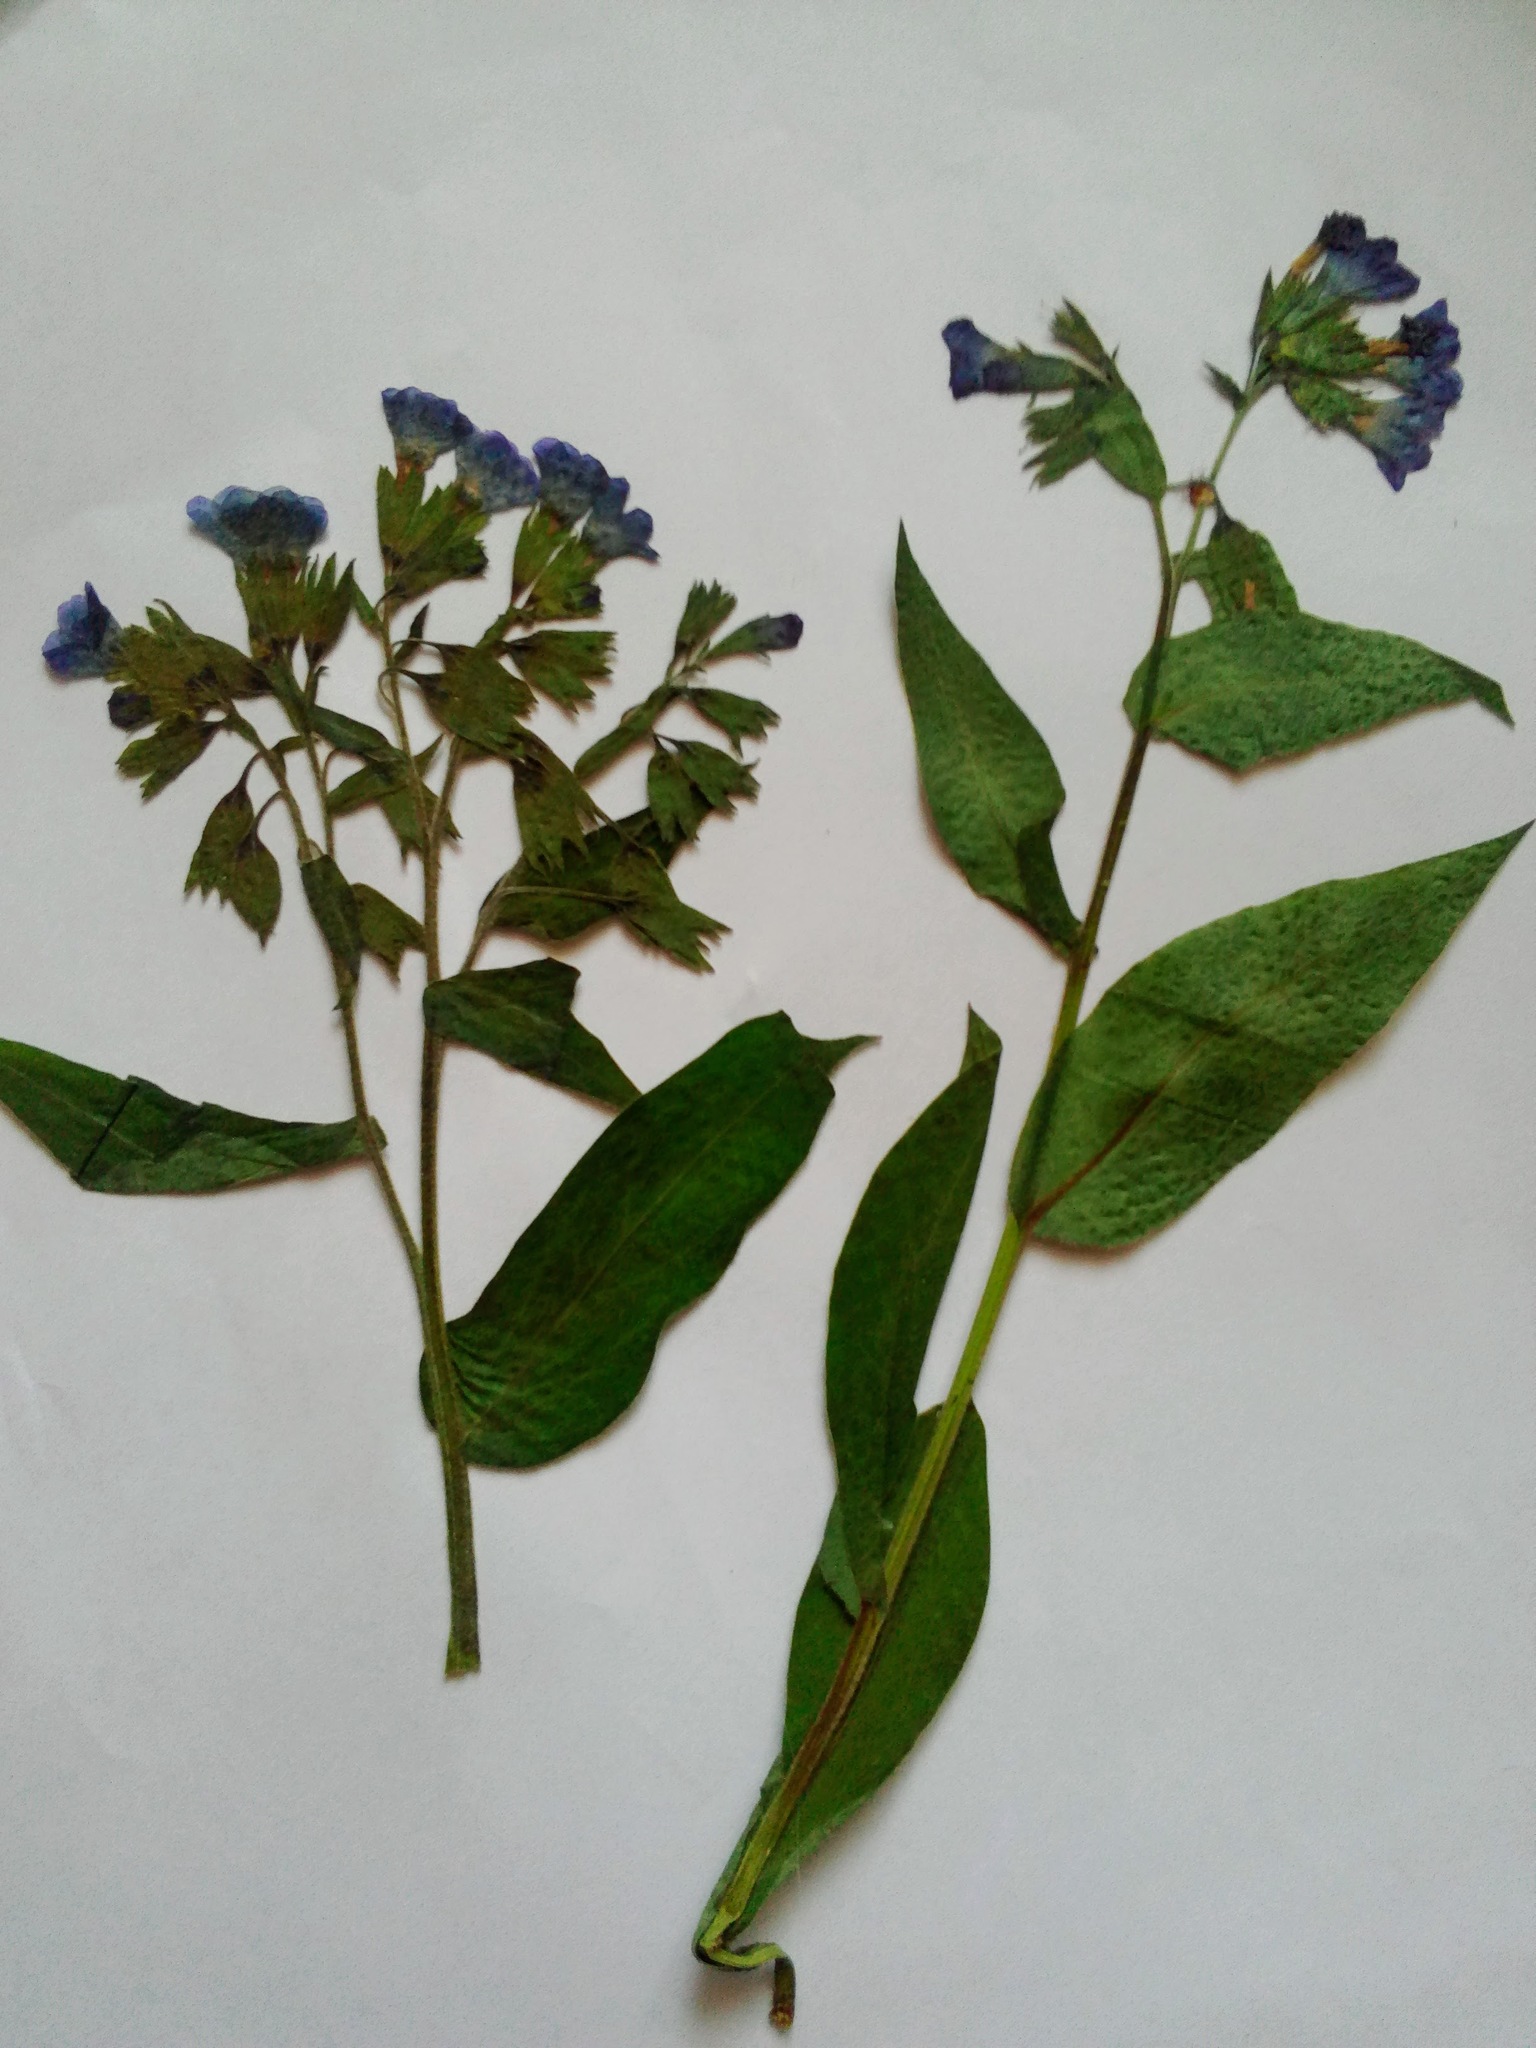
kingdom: Plantae
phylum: Tracheophyta
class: Magnoliopsida
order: Boraginales
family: Boraginaceae
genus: Pulmonaria
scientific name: Pulmonaria mollis
